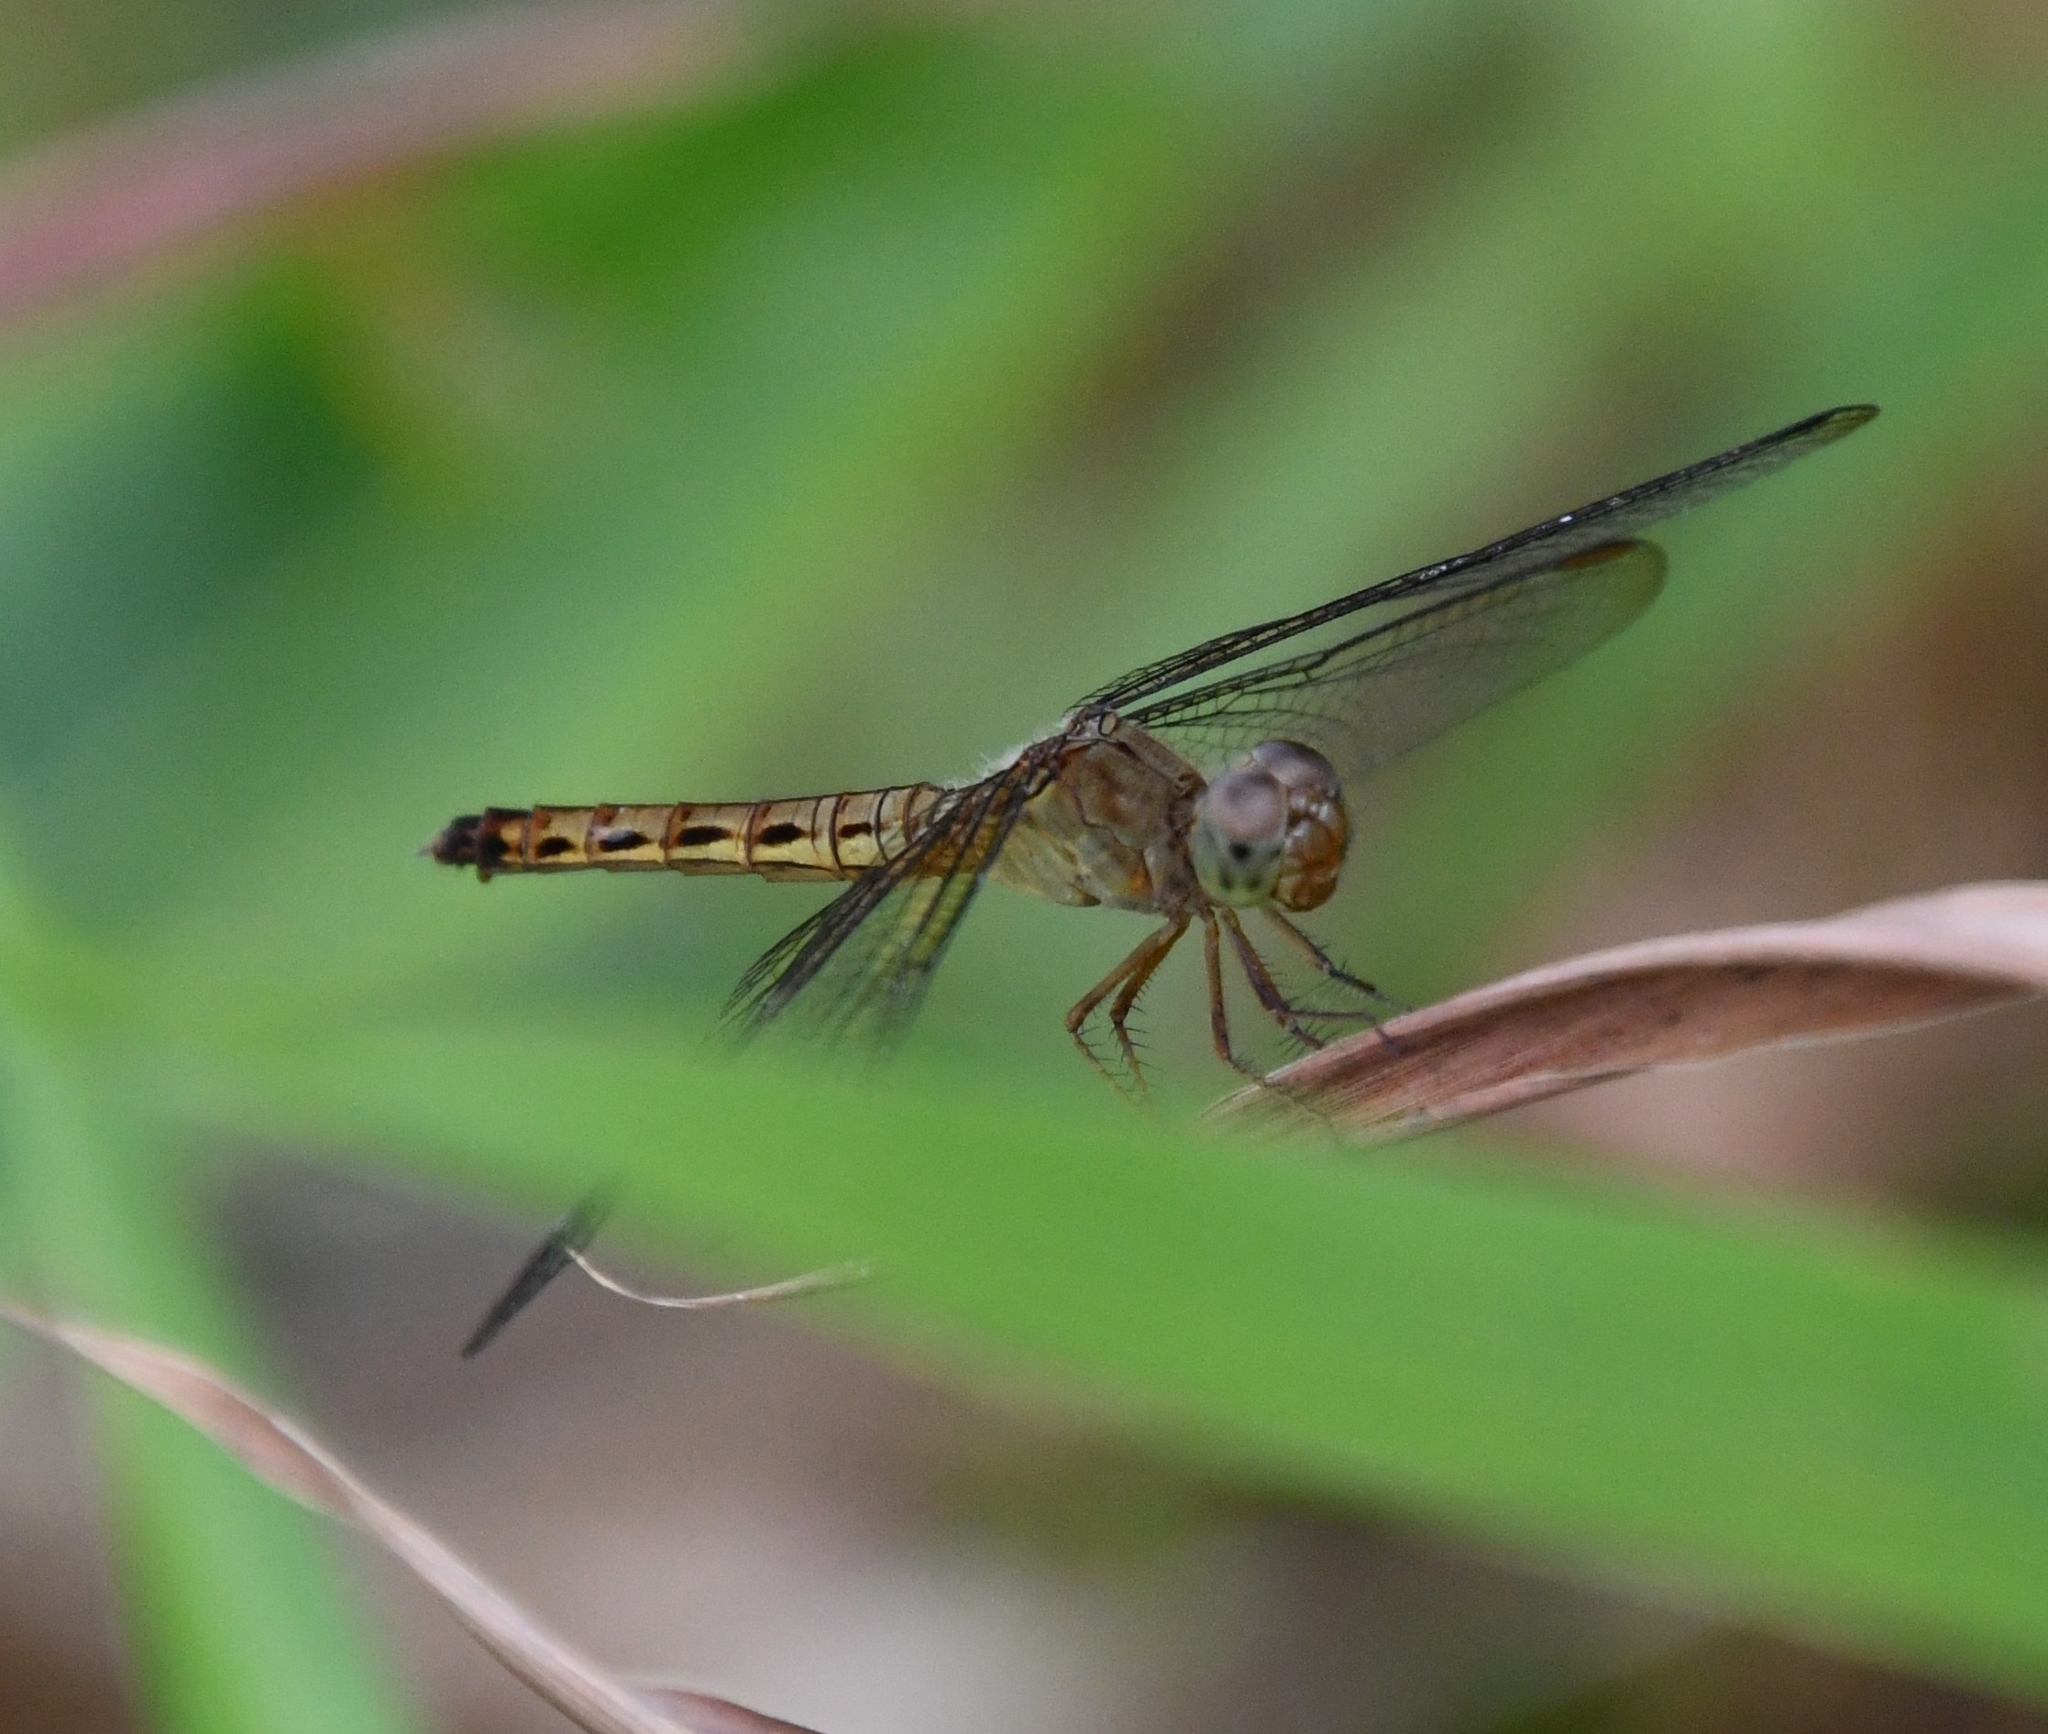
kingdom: Animalia
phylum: Arthropoda
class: Insecta
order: Odonata
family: Libellulidae
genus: Neurothemis
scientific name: Neurothemis fluctuans
